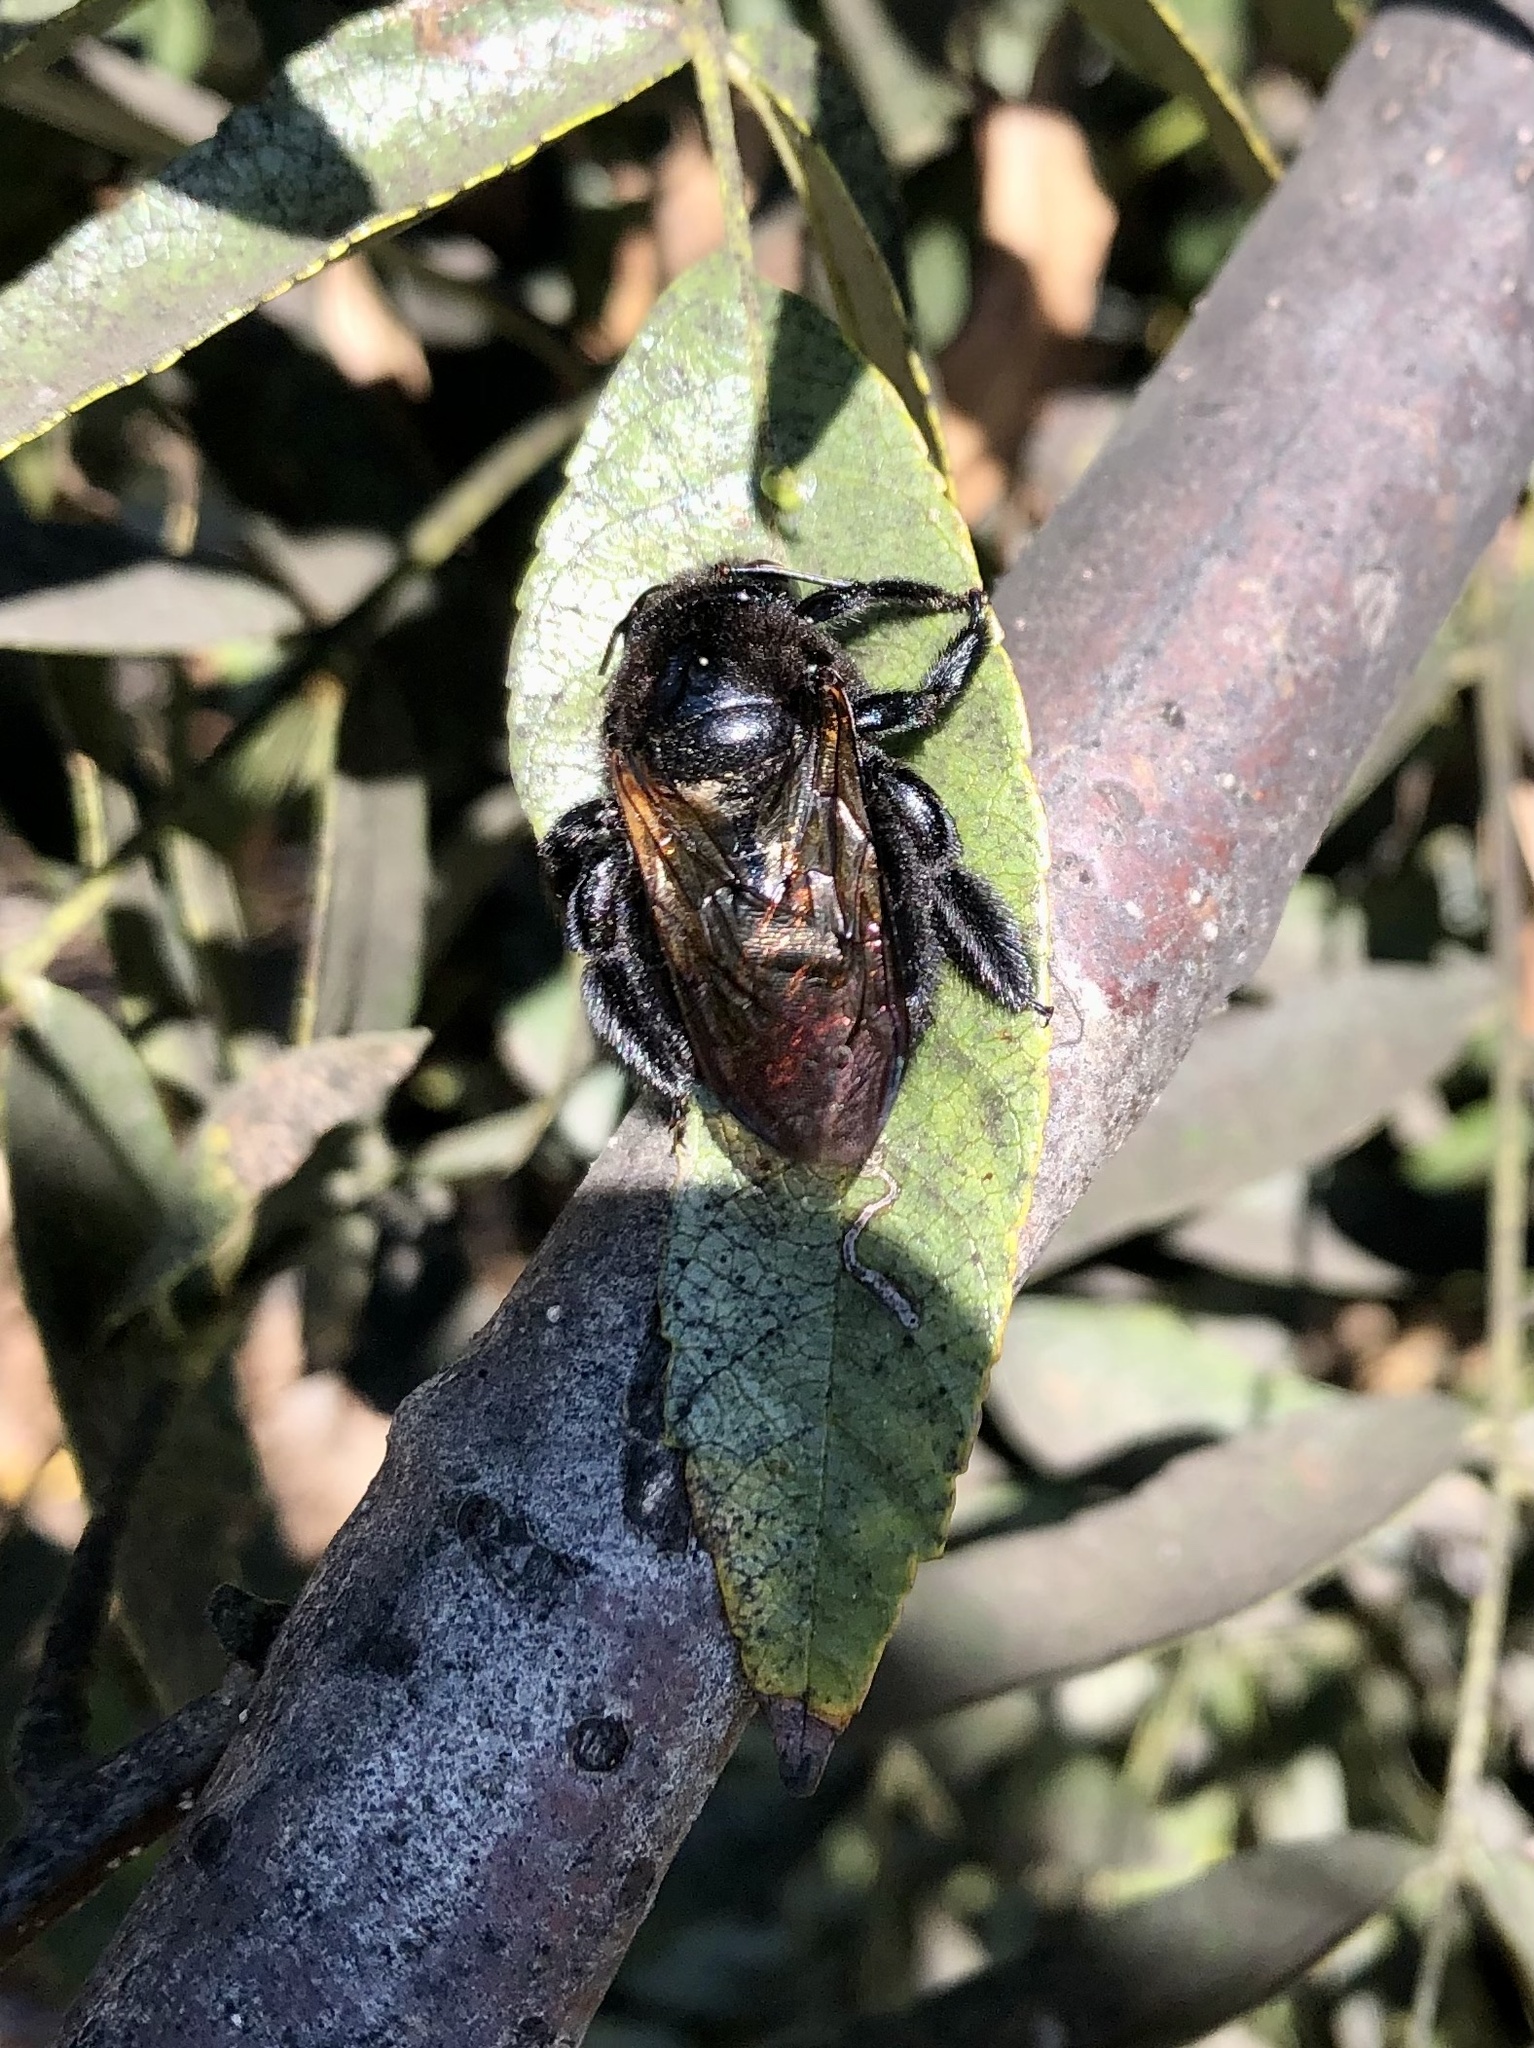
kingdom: Animalia
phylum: Arthropoda
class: Insecta
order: Hymenoptera
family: Apidae
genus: Xylocopa
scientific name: Xylocopa sonorina
